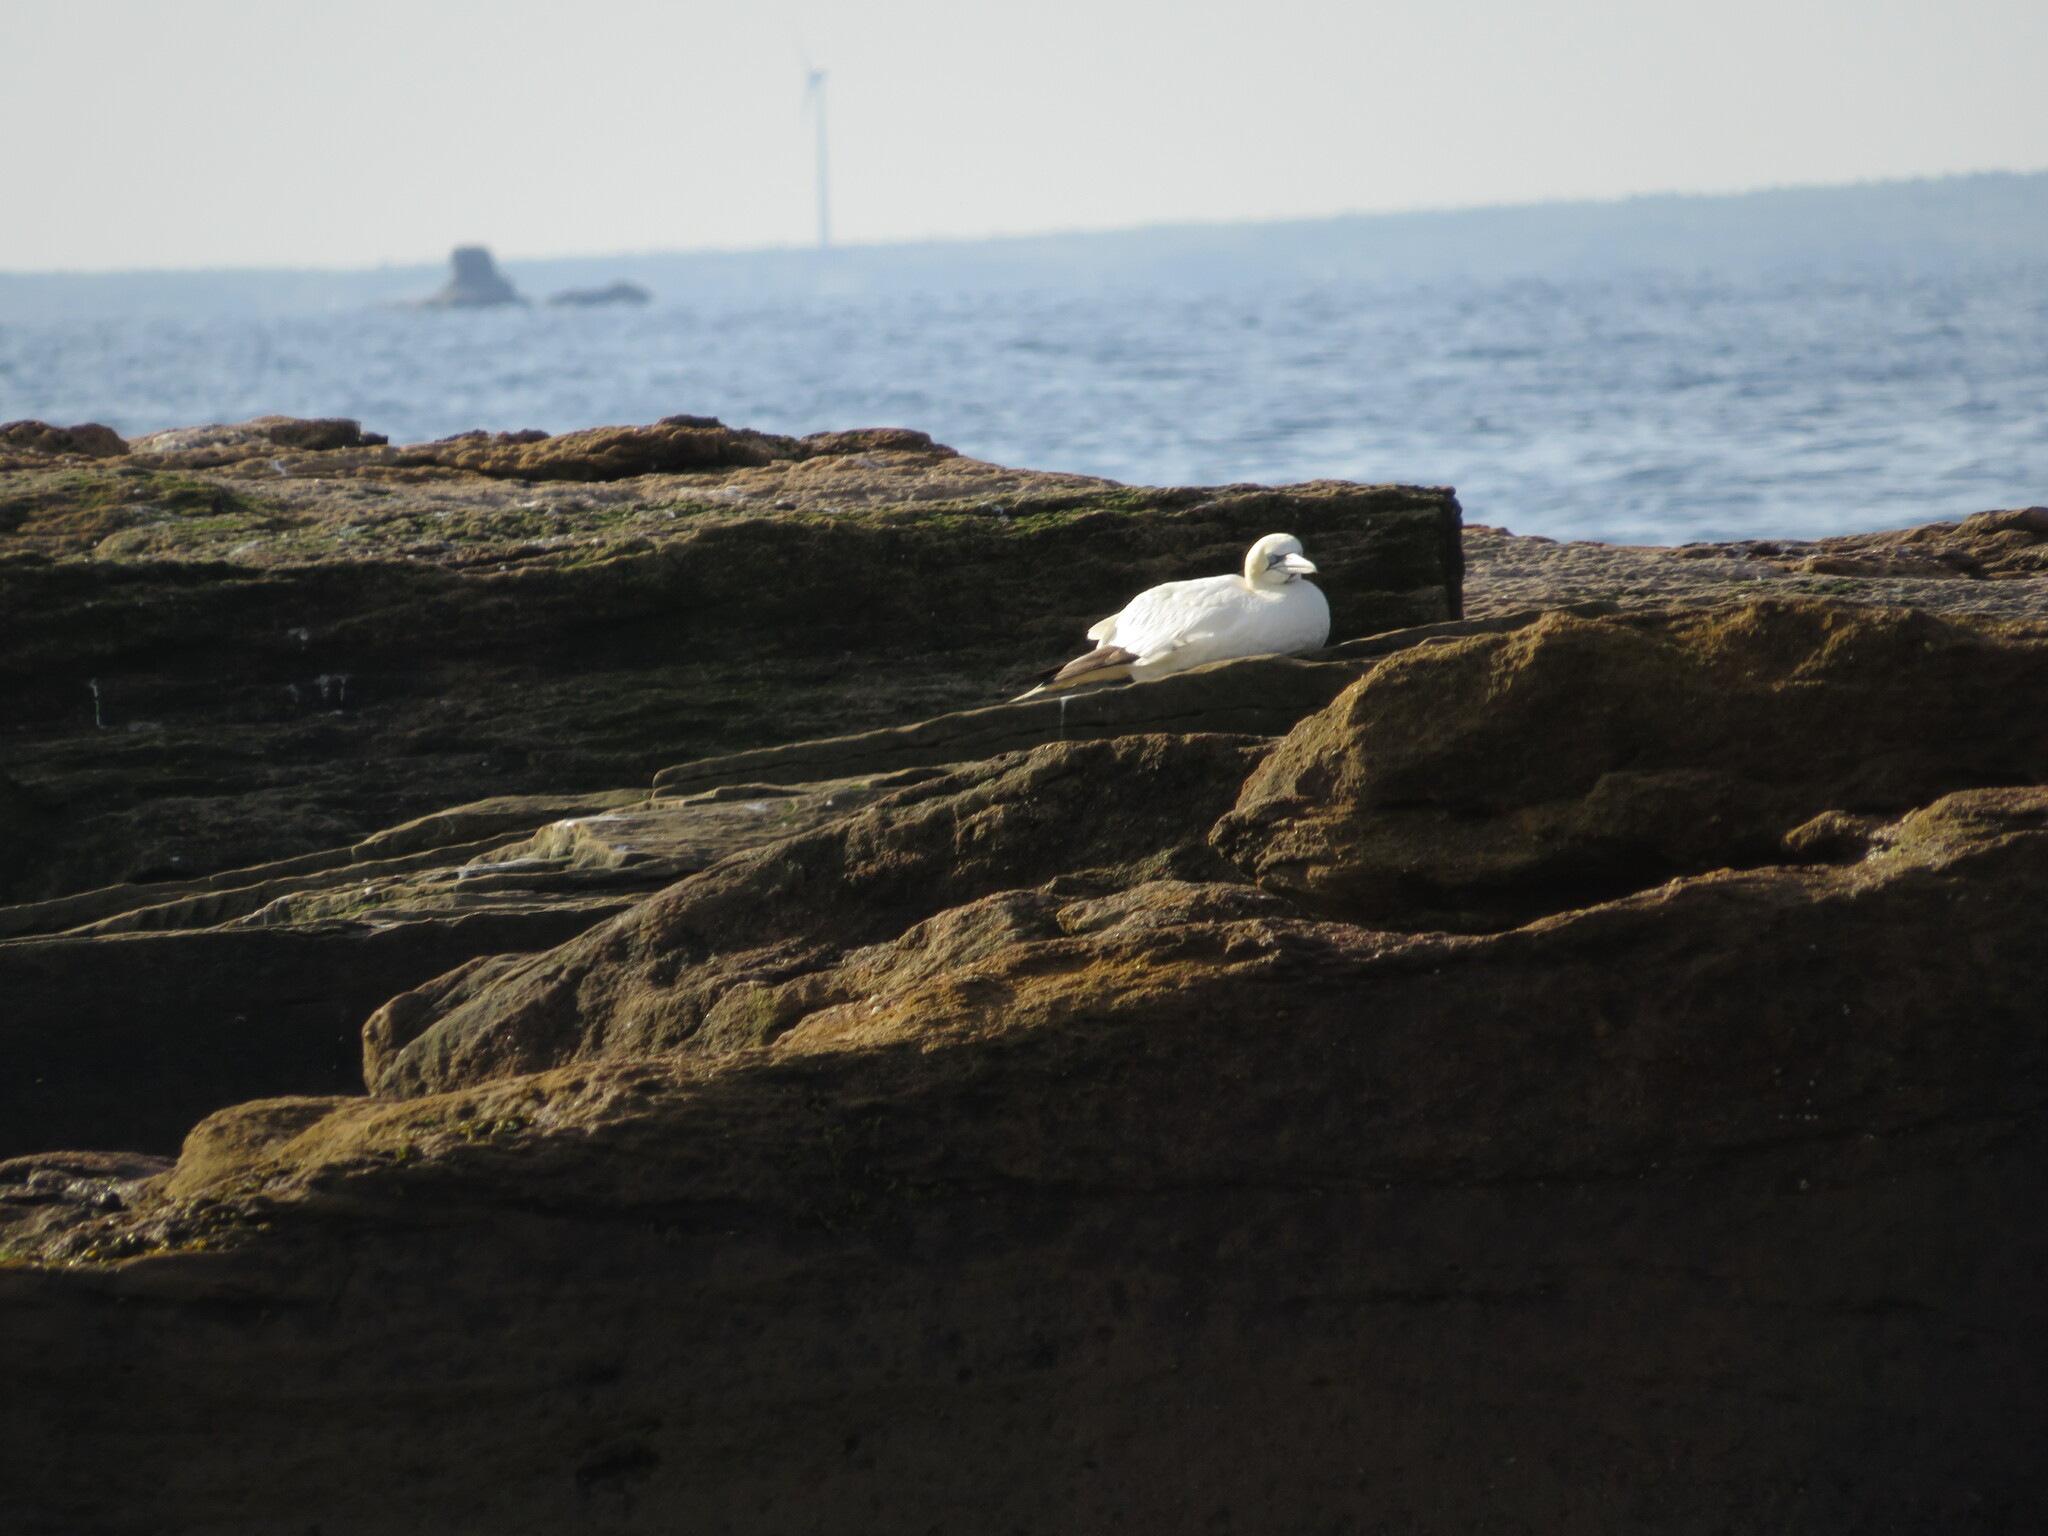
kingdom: Animalia
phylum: Chordata
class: Aves
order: Suliformes
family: Sulidae
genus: Morus
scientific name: Morus bassanus
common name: Northern gannet
